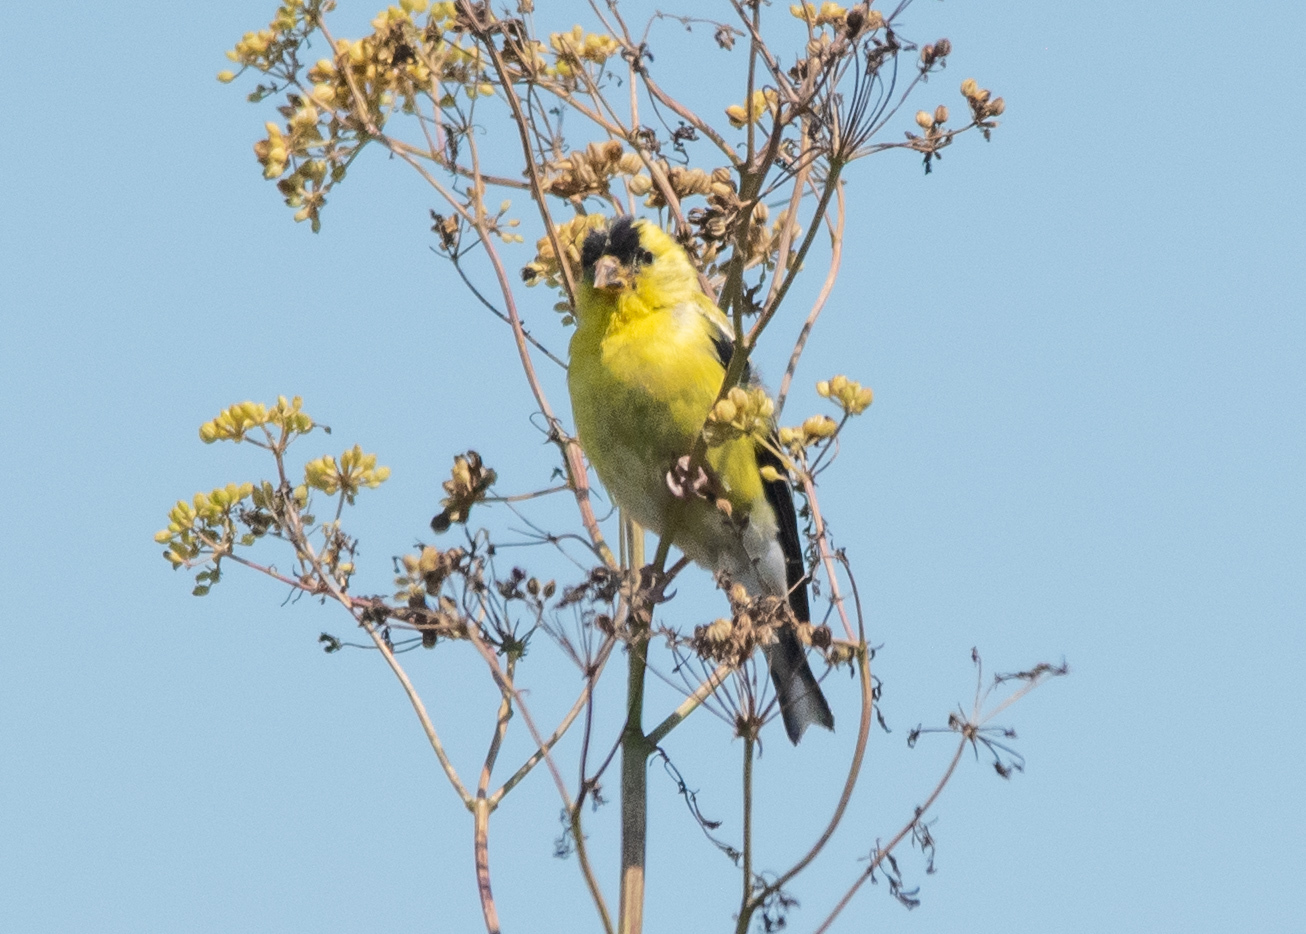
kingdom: Animalia
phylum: Chordata
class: Aves
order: Passeriformes
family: Fringillidae
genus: Spinus
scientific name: Spinus tristis
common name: American goldfinch
